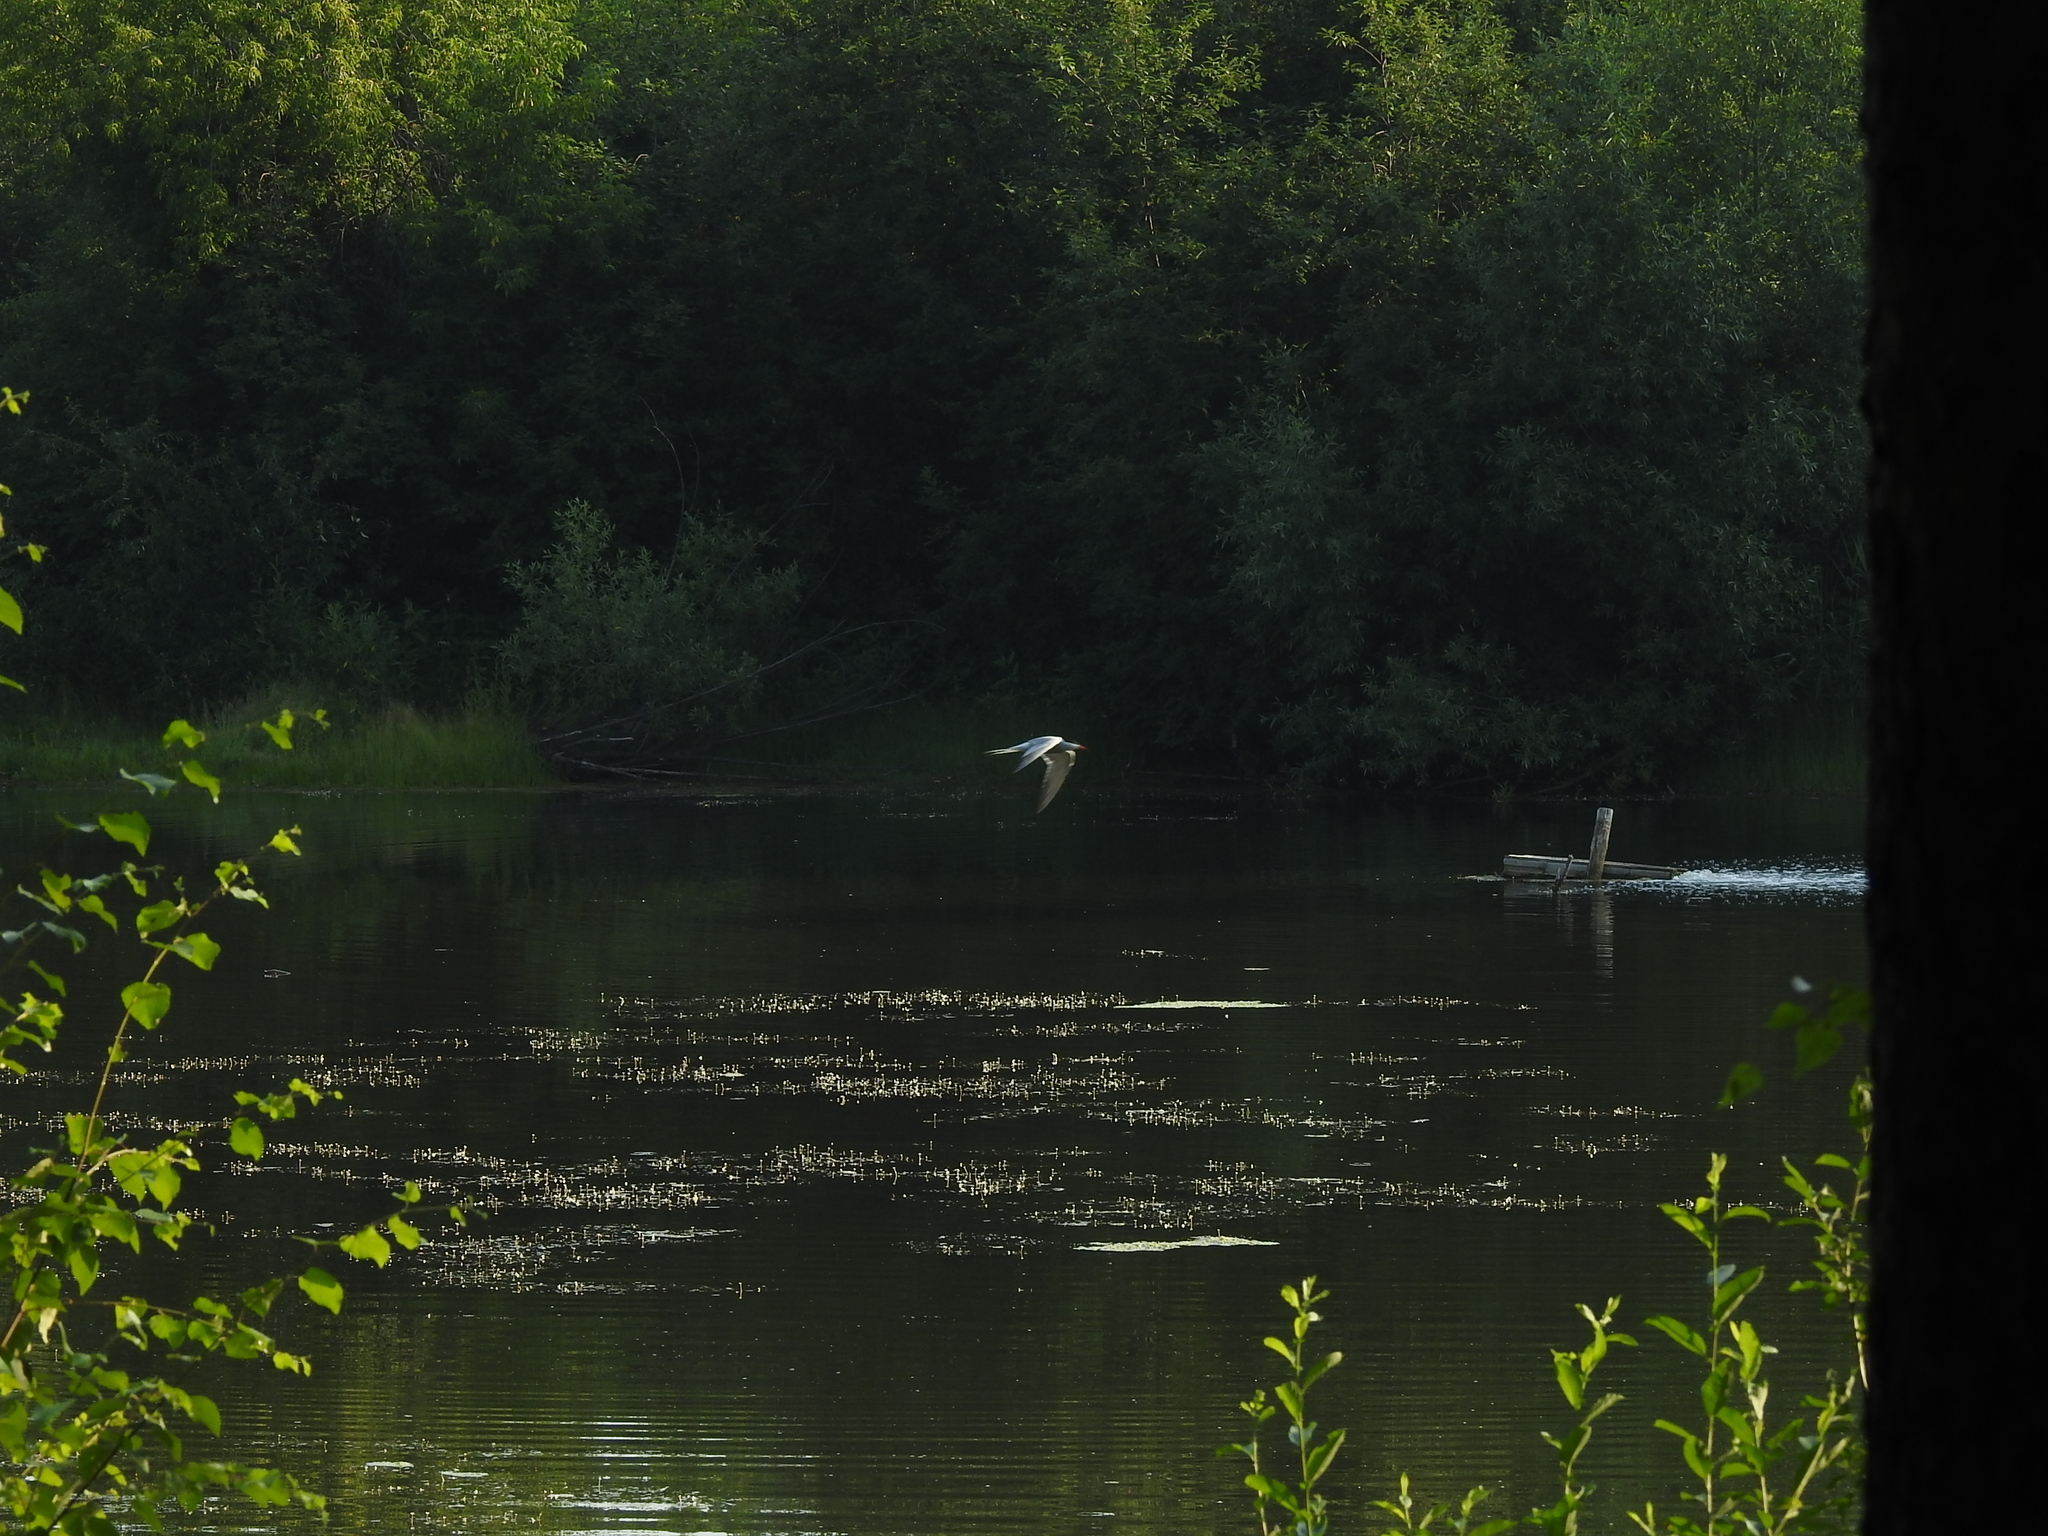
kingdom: Animalia
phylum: Chordata
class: Aves
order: Charadriiformes
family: Laridae
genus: Sterna
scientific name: Sterna hirundo
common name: Common tern
